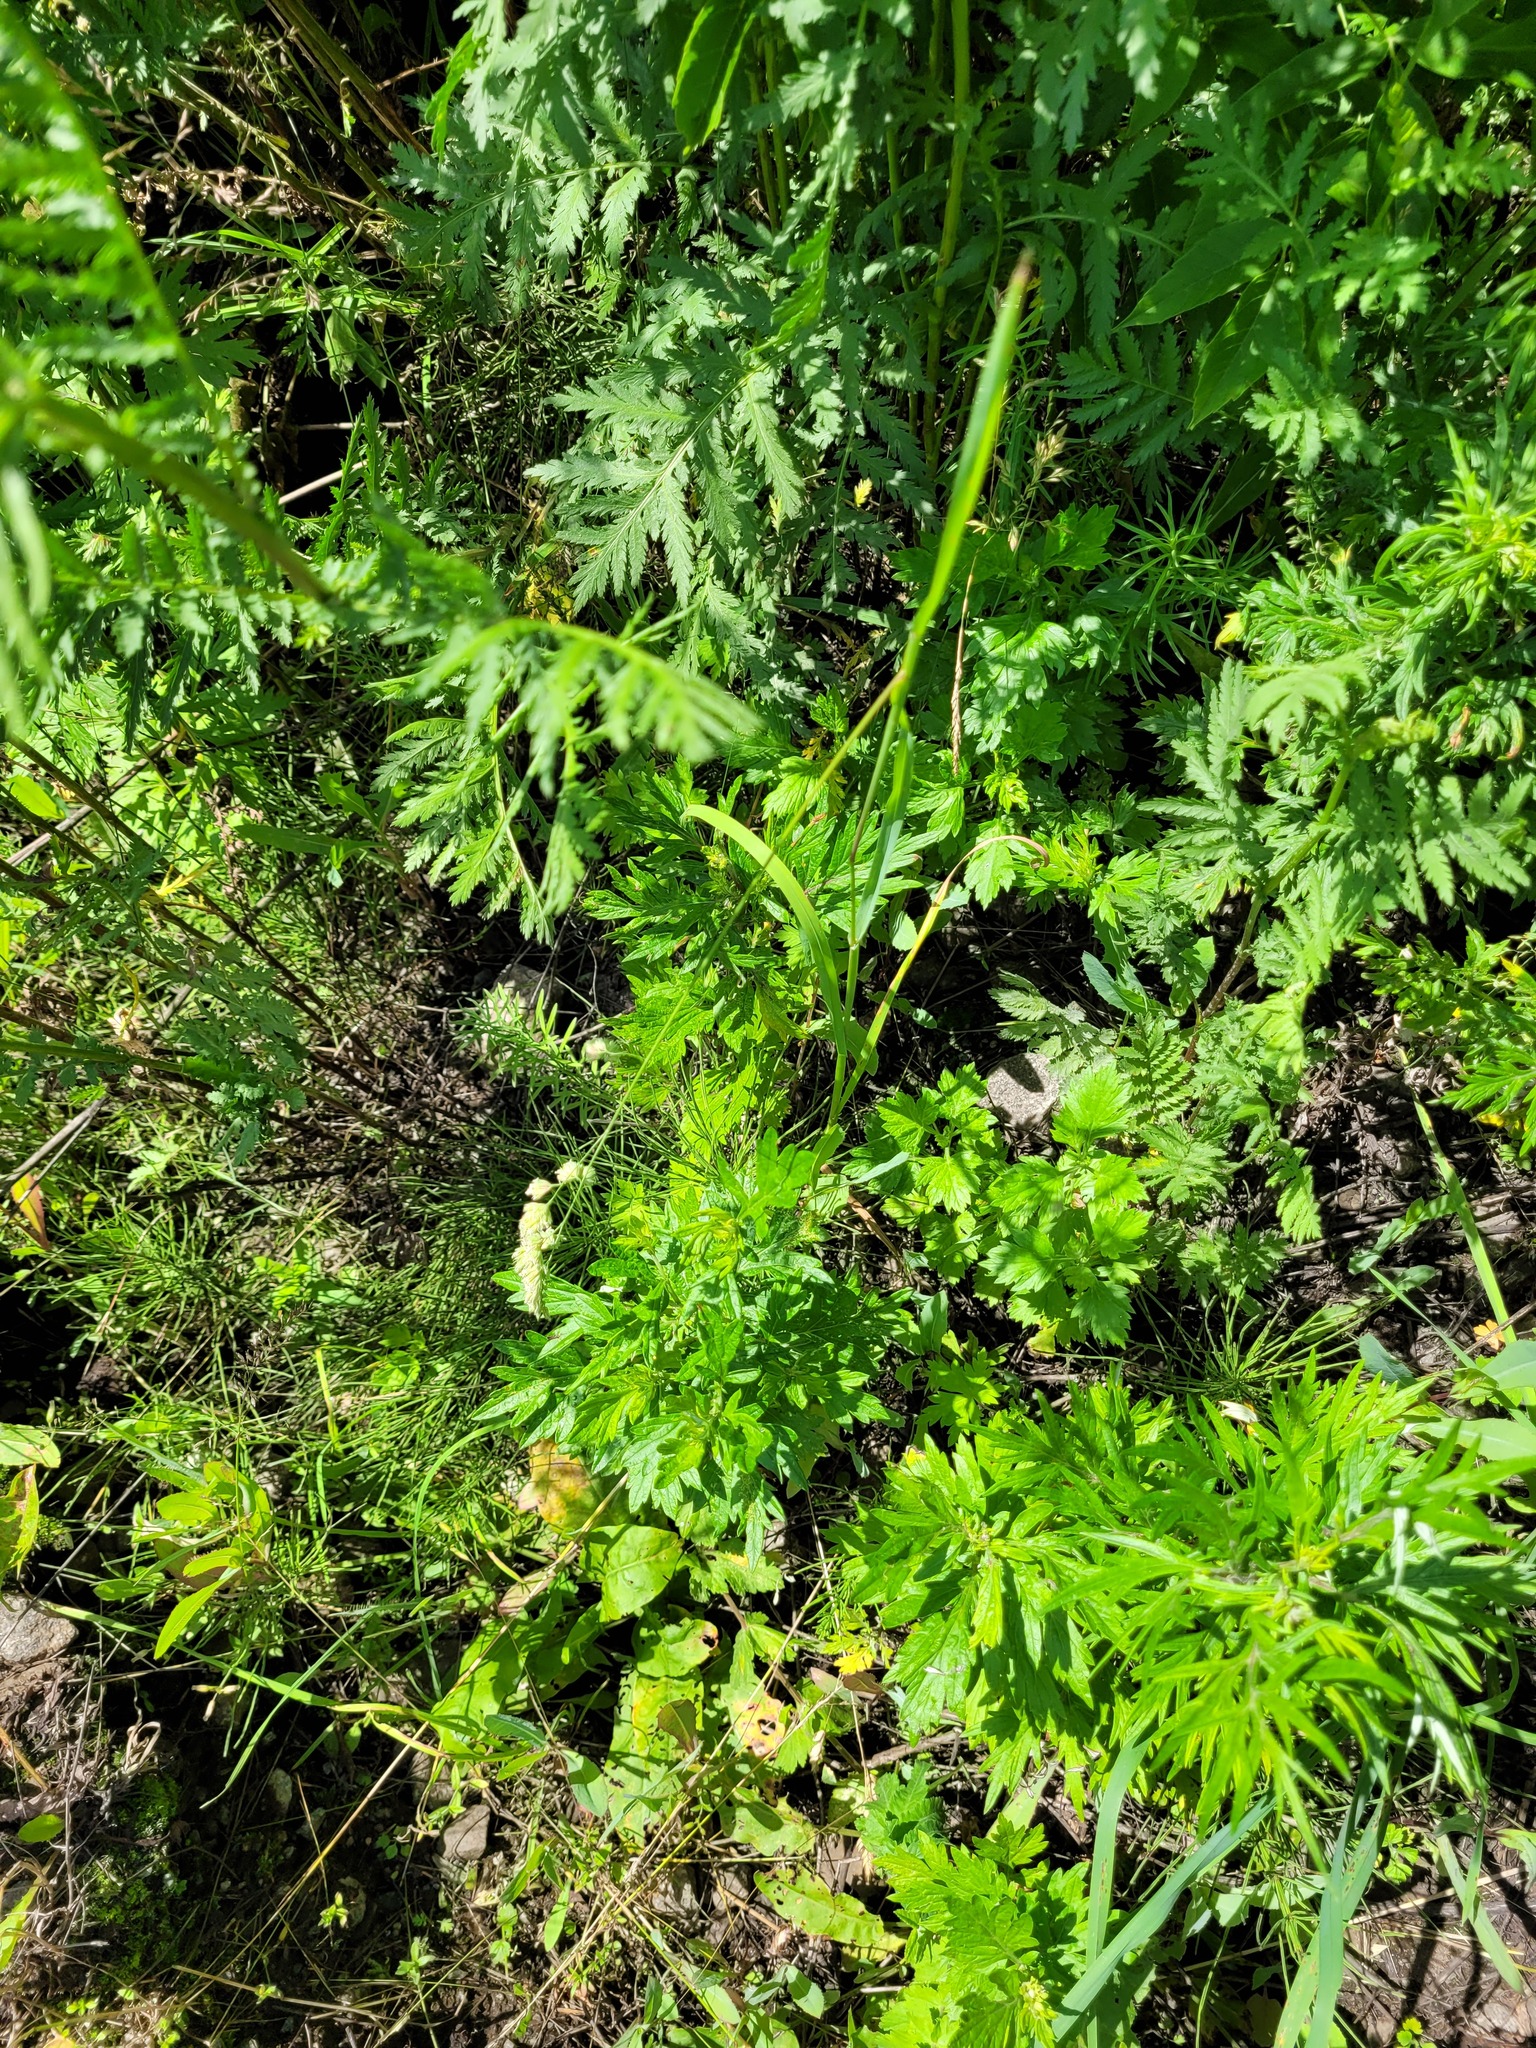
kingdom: Plantae
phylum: Tracheophyta
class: Liliopsida
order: Poales
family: Poaceae
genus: Dactylis
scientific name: Dactylis glomerata
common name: Orchardgrass
